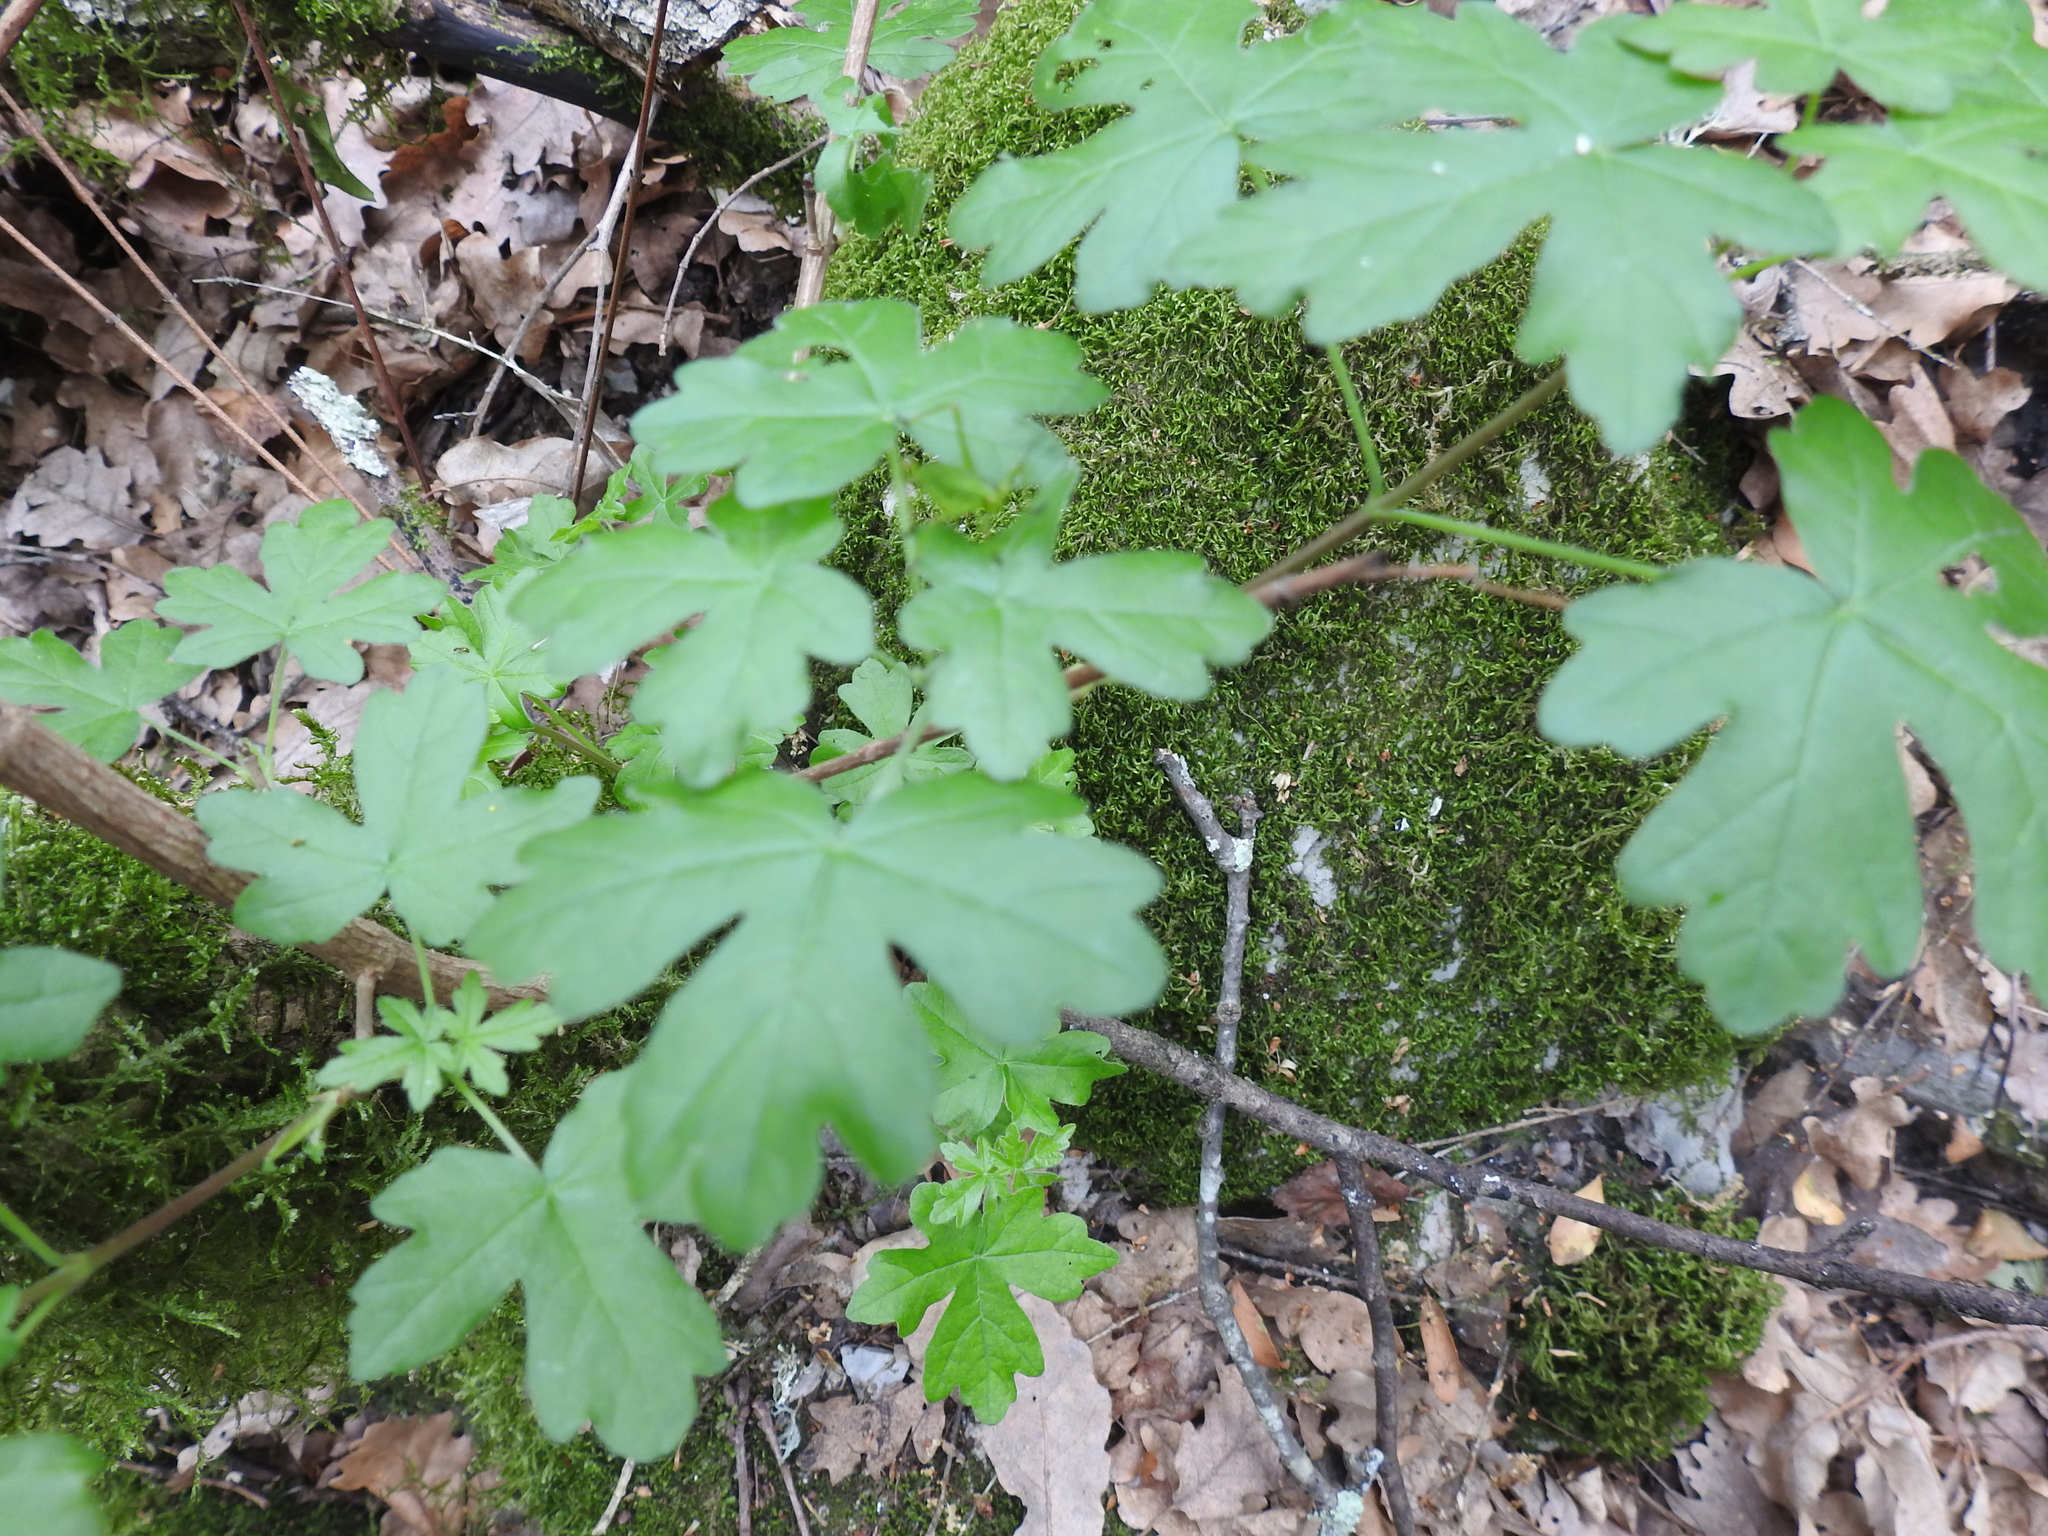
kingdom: Plantae
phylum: Tracheophyta
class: Magnoliopsida
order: Sapindales
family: Sapindaceae
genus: Acer
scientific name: Acer campestre
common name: Field maple
